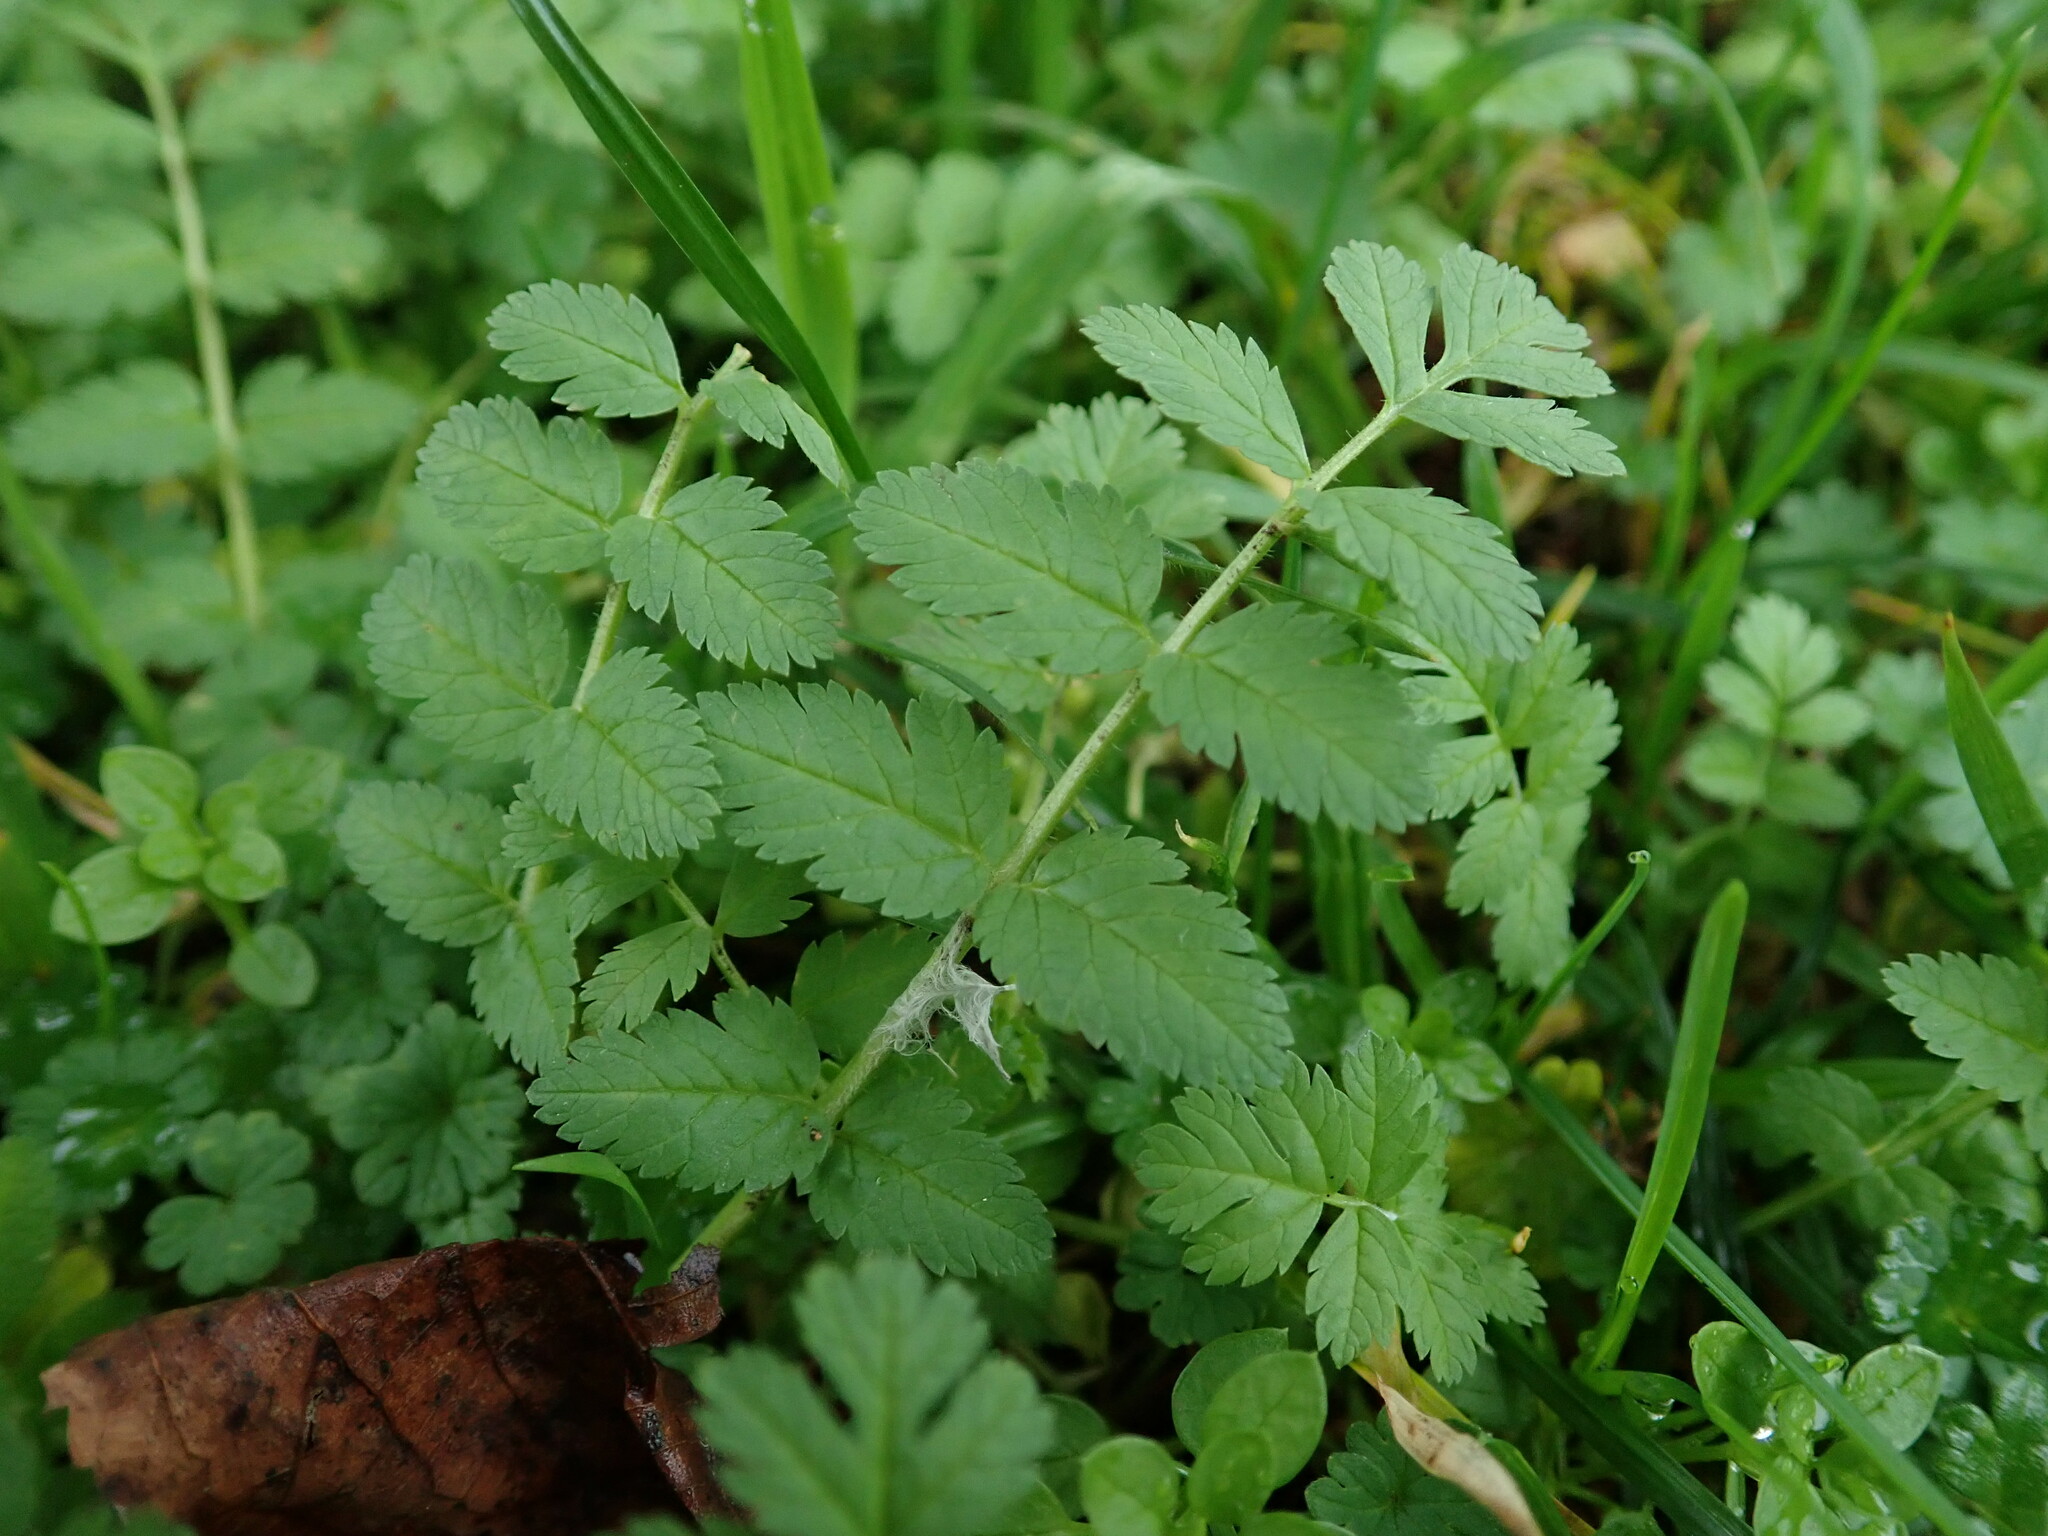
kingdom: Plantae
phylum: Tracheophyta
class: Magnoliopsida
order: Geraniales
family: Geraniaceae
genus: Erodium
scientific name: Erodium moschatum
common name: Musk stork's-bill
